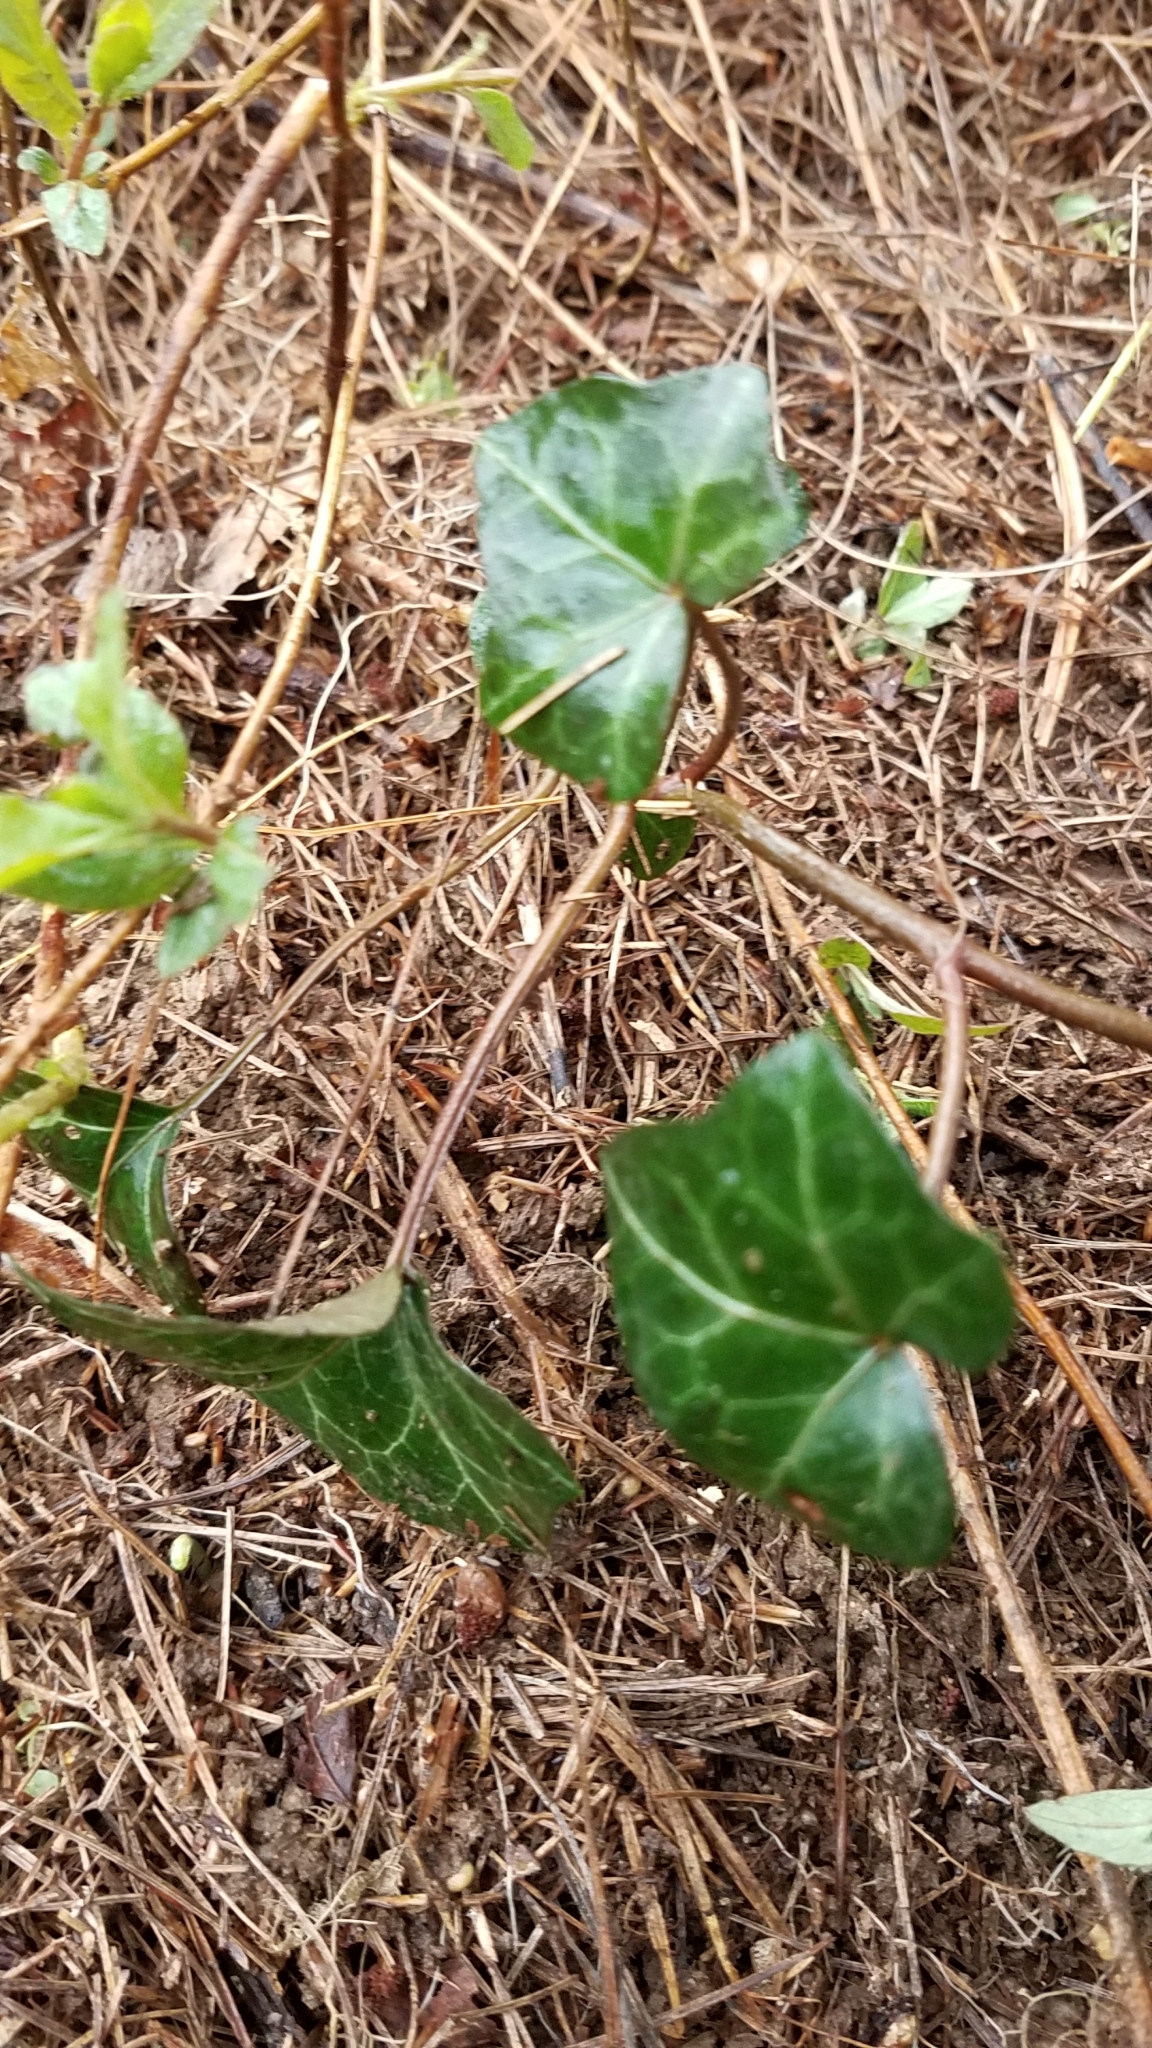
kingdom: Plantae
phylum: Tracheophyta
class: Magnoliopsida
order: Apiales
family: Araliaceae
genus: Hedera
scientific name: Hedera helix
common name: Ivy
